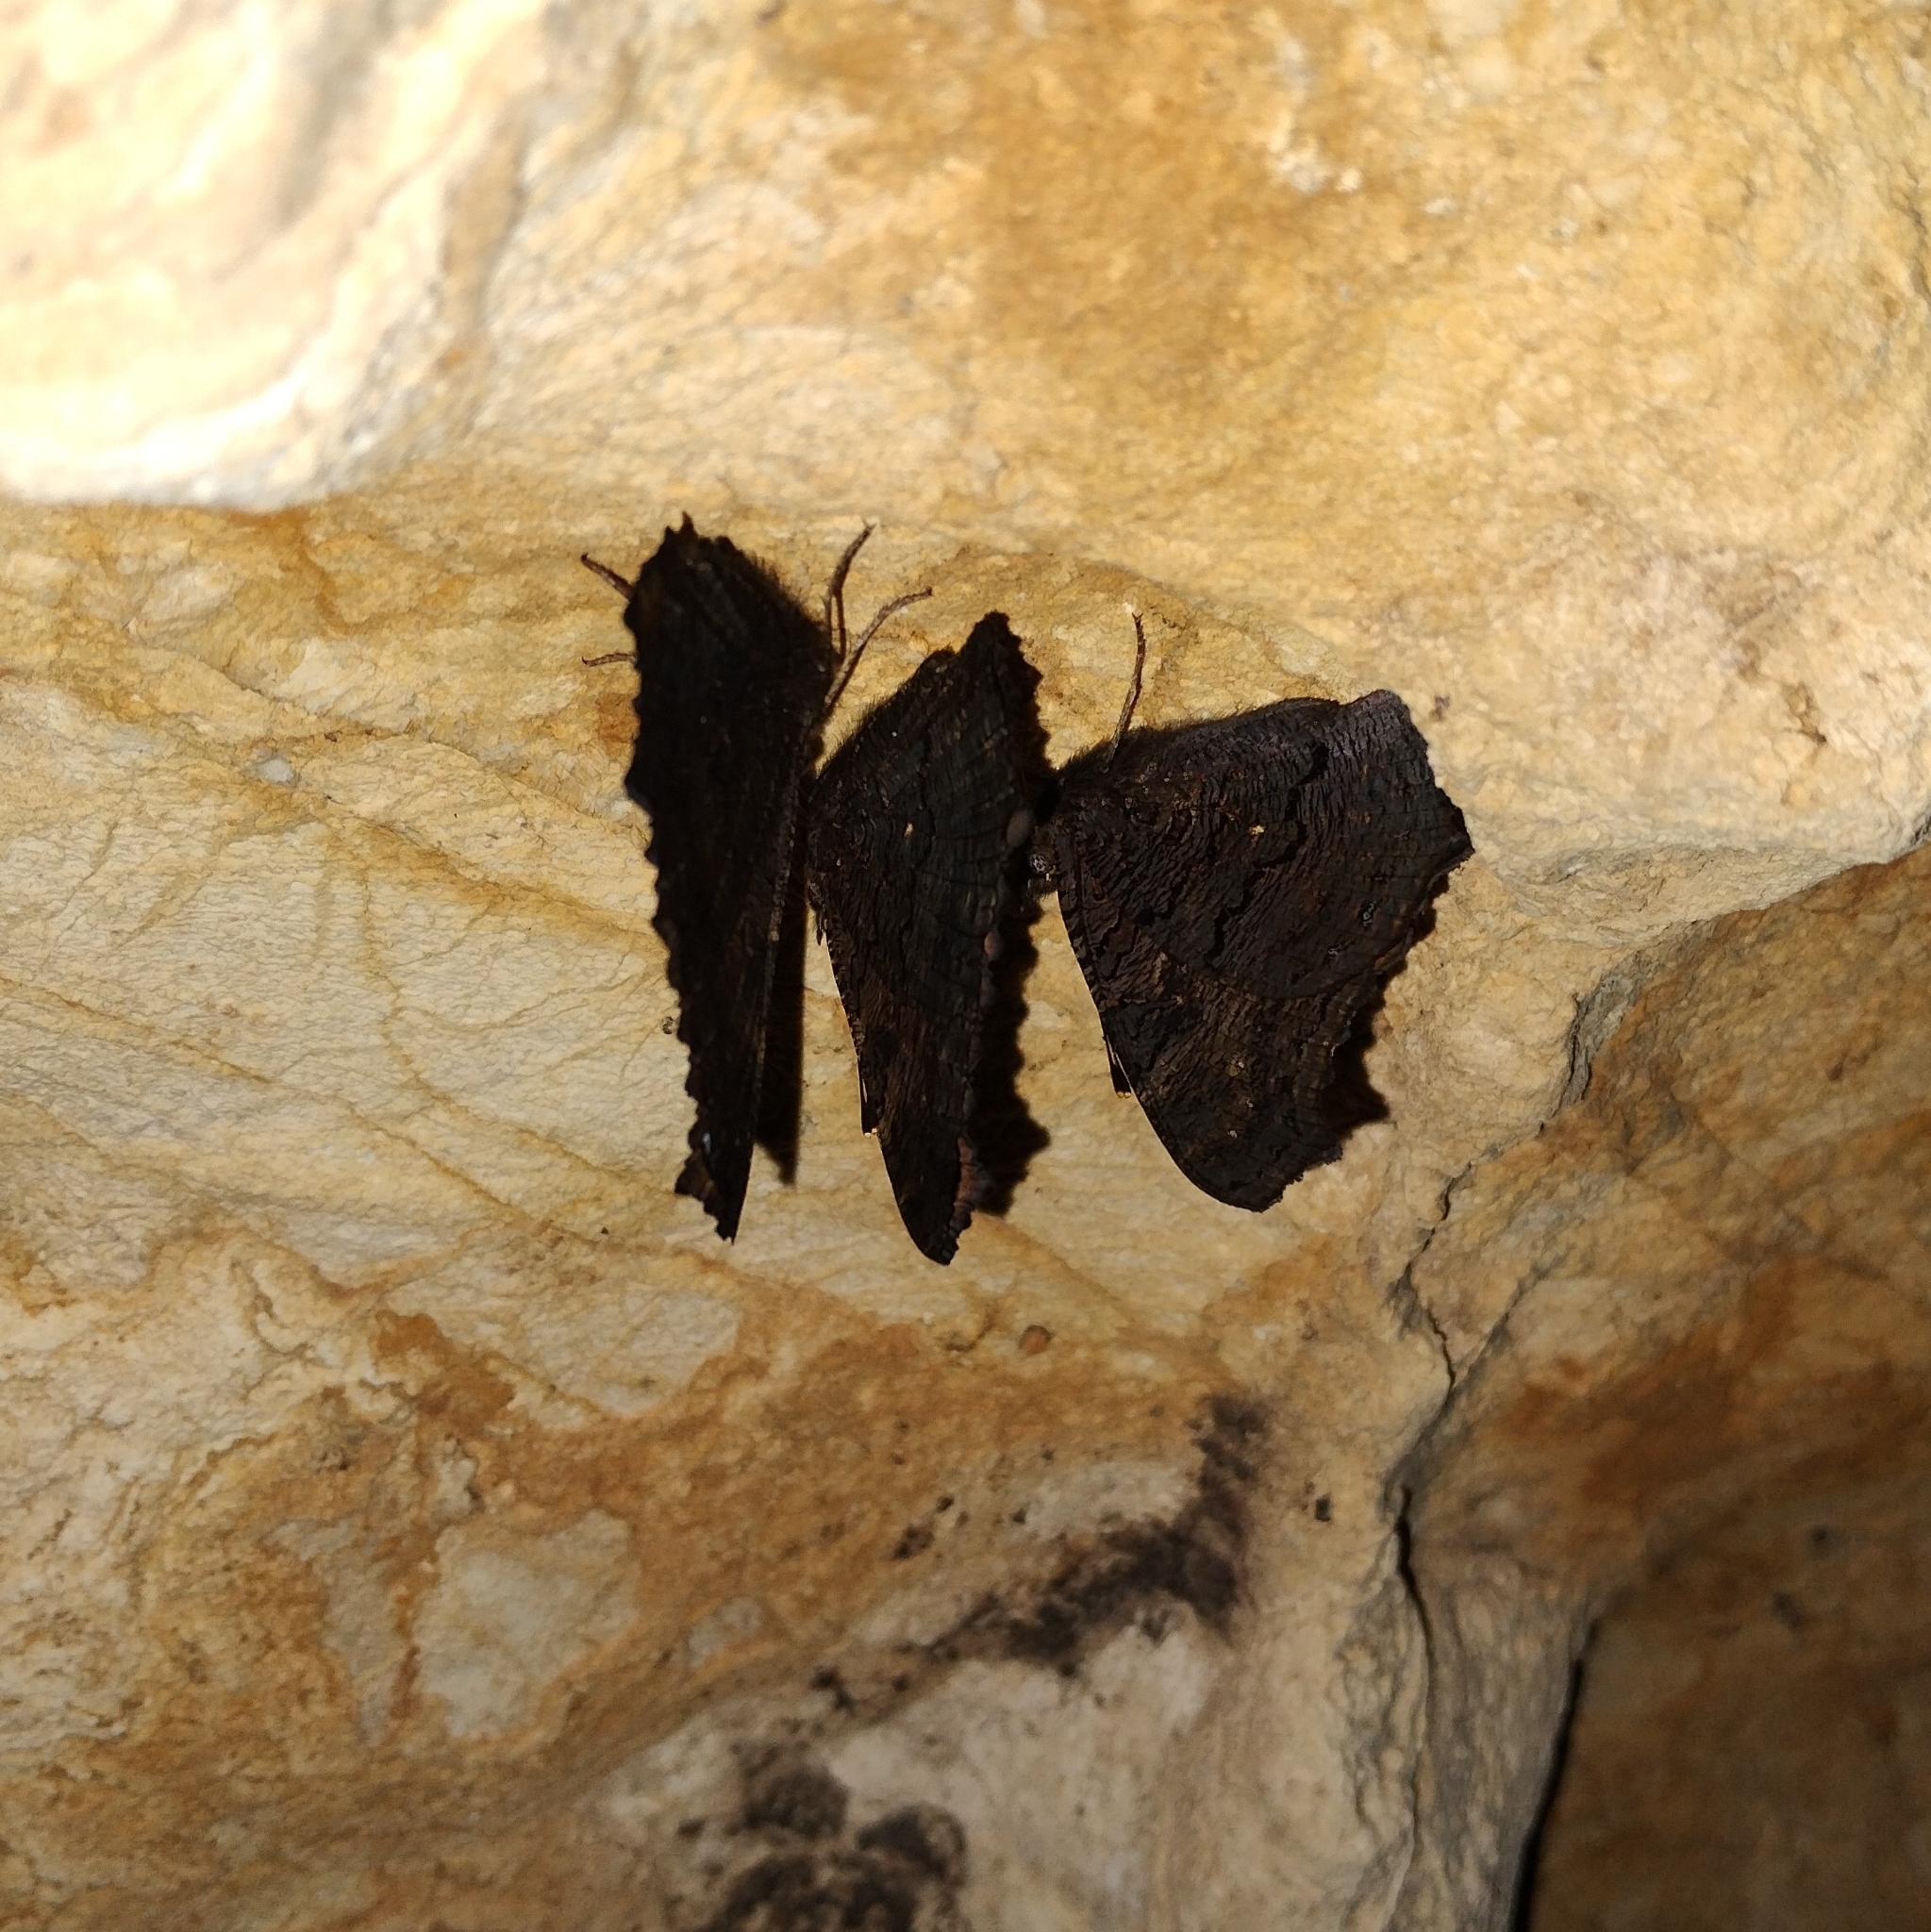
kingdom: Animalia
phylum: Arthropoda
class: Insecta
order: Lepidoptera
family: Nymphalidae
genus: Aglais
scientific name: Aglais io
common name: Peacock
